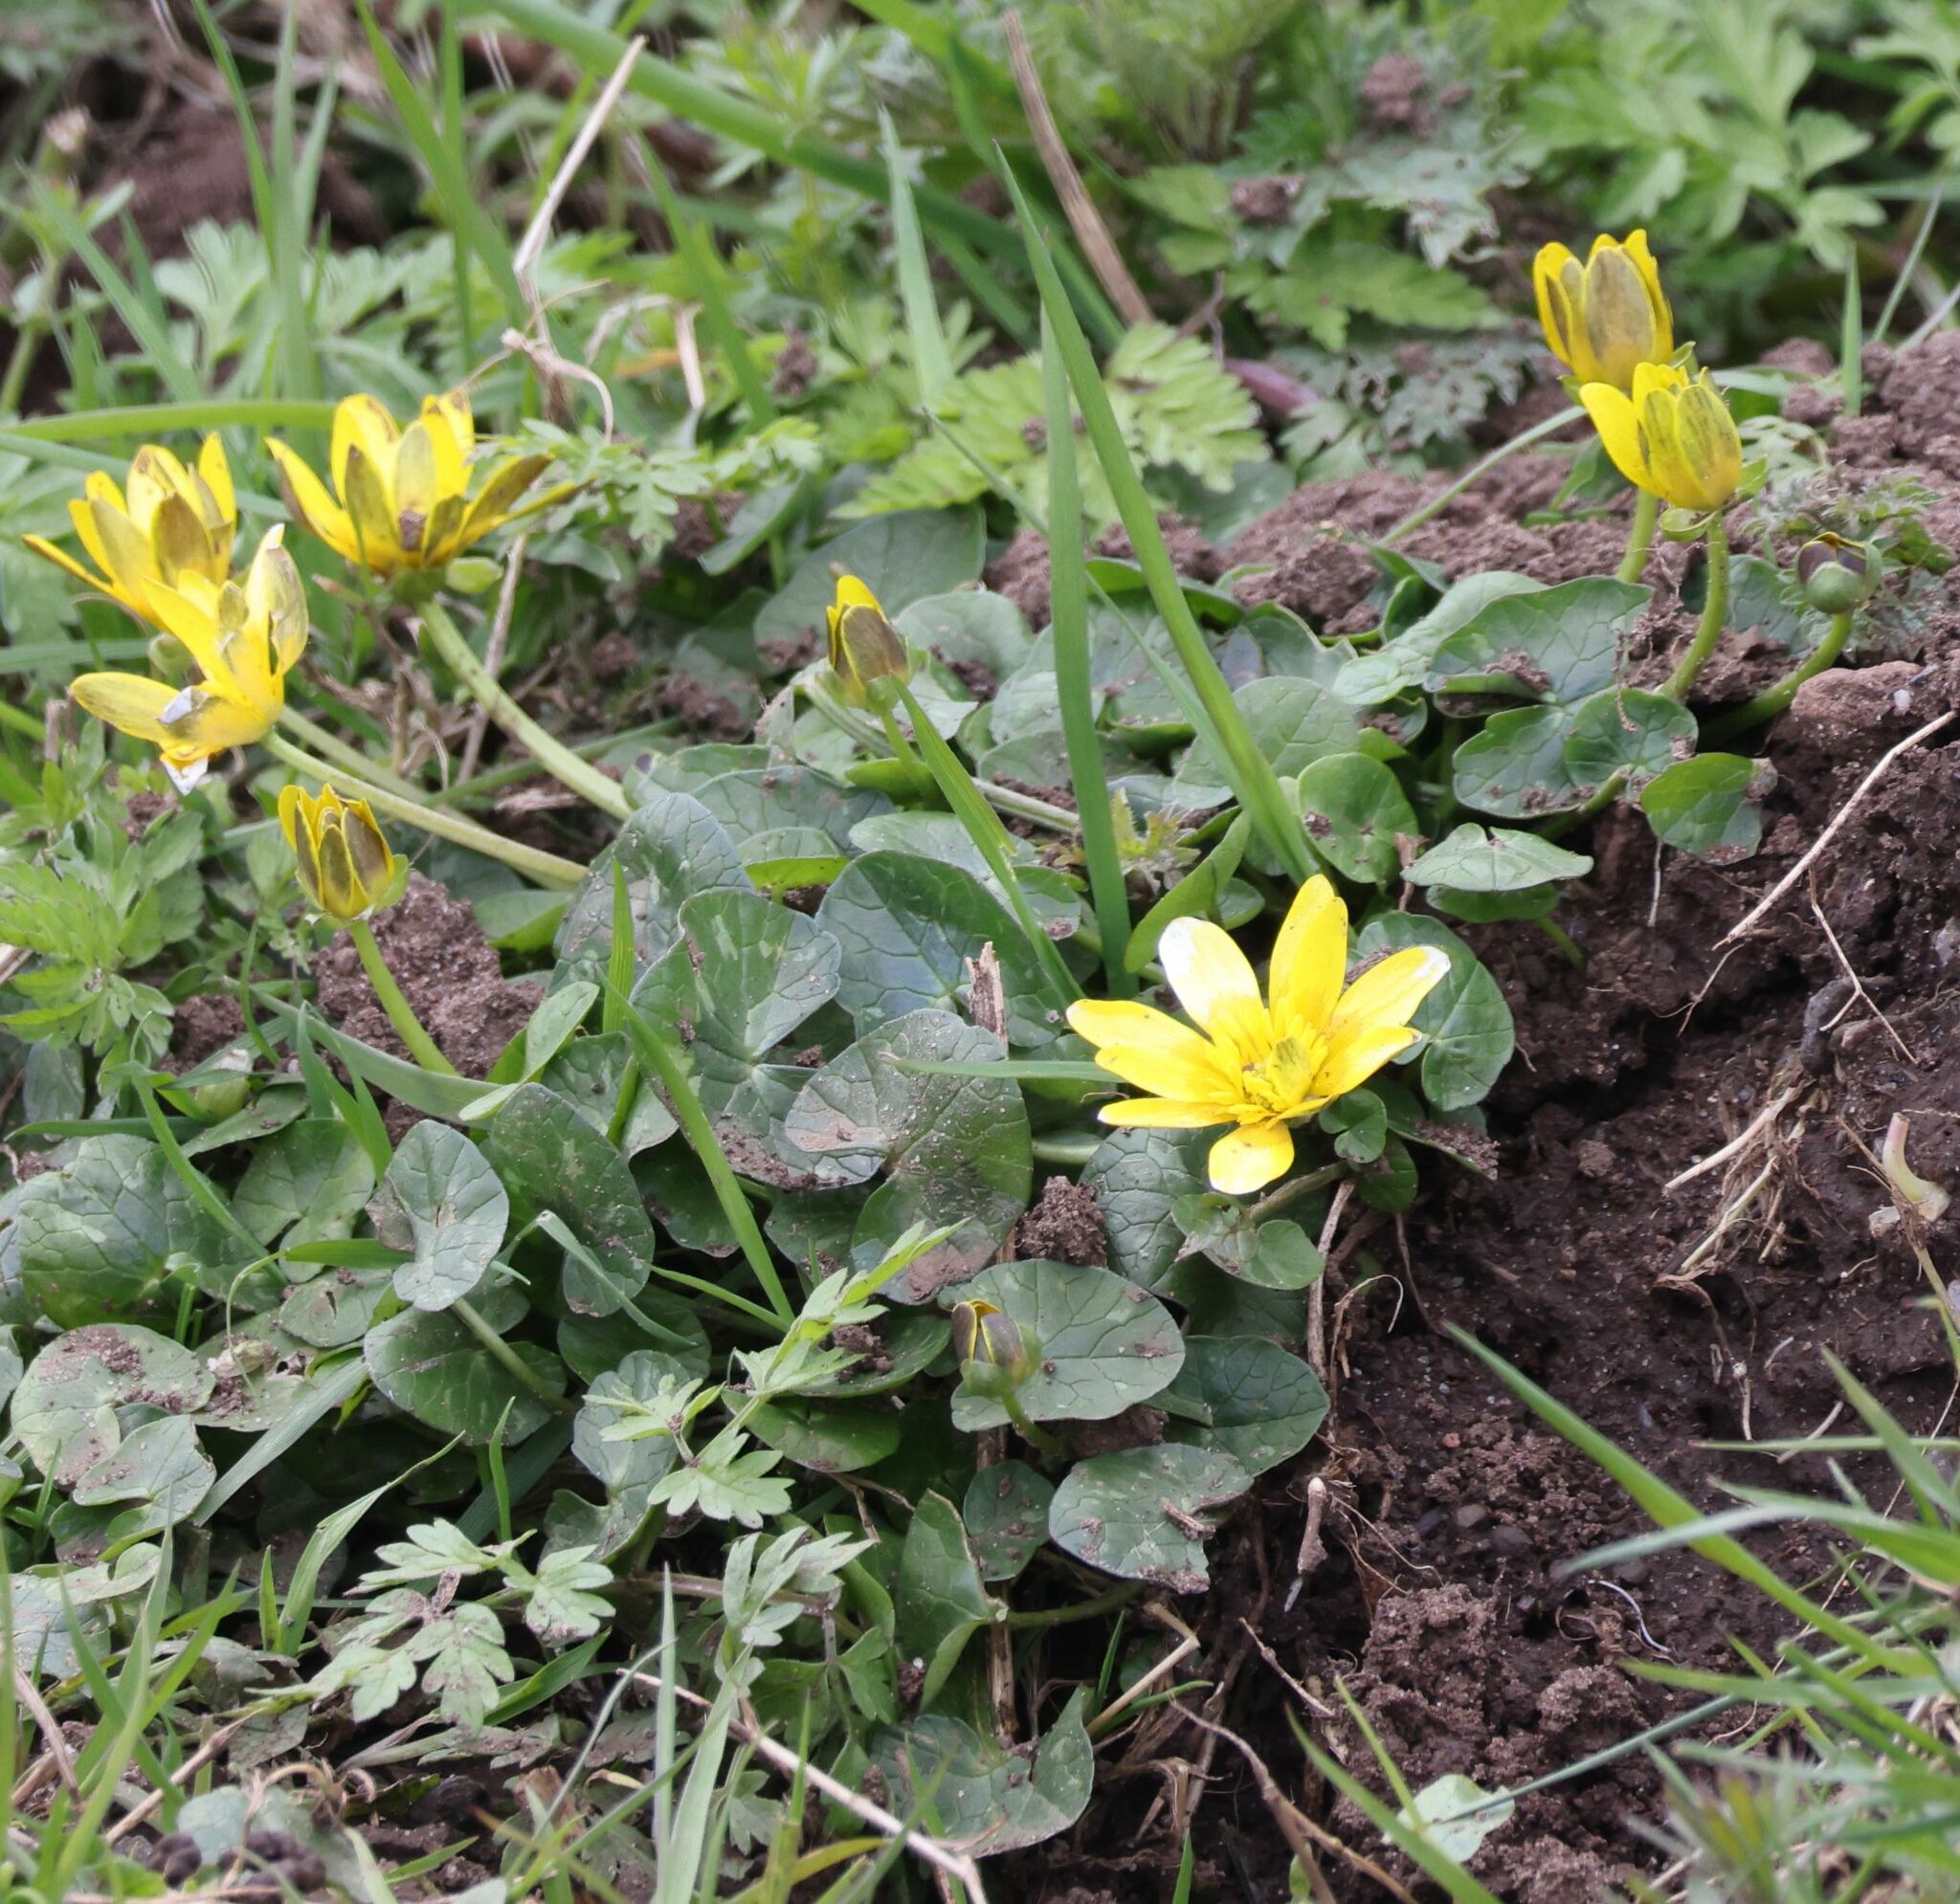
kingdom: Plantae
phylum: Tracheophyta
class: Magnoliopsida
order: Ranunculales
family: Ranunculaceae
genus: Ficaria
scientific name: Ficaria verna
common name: Lesser celandine
